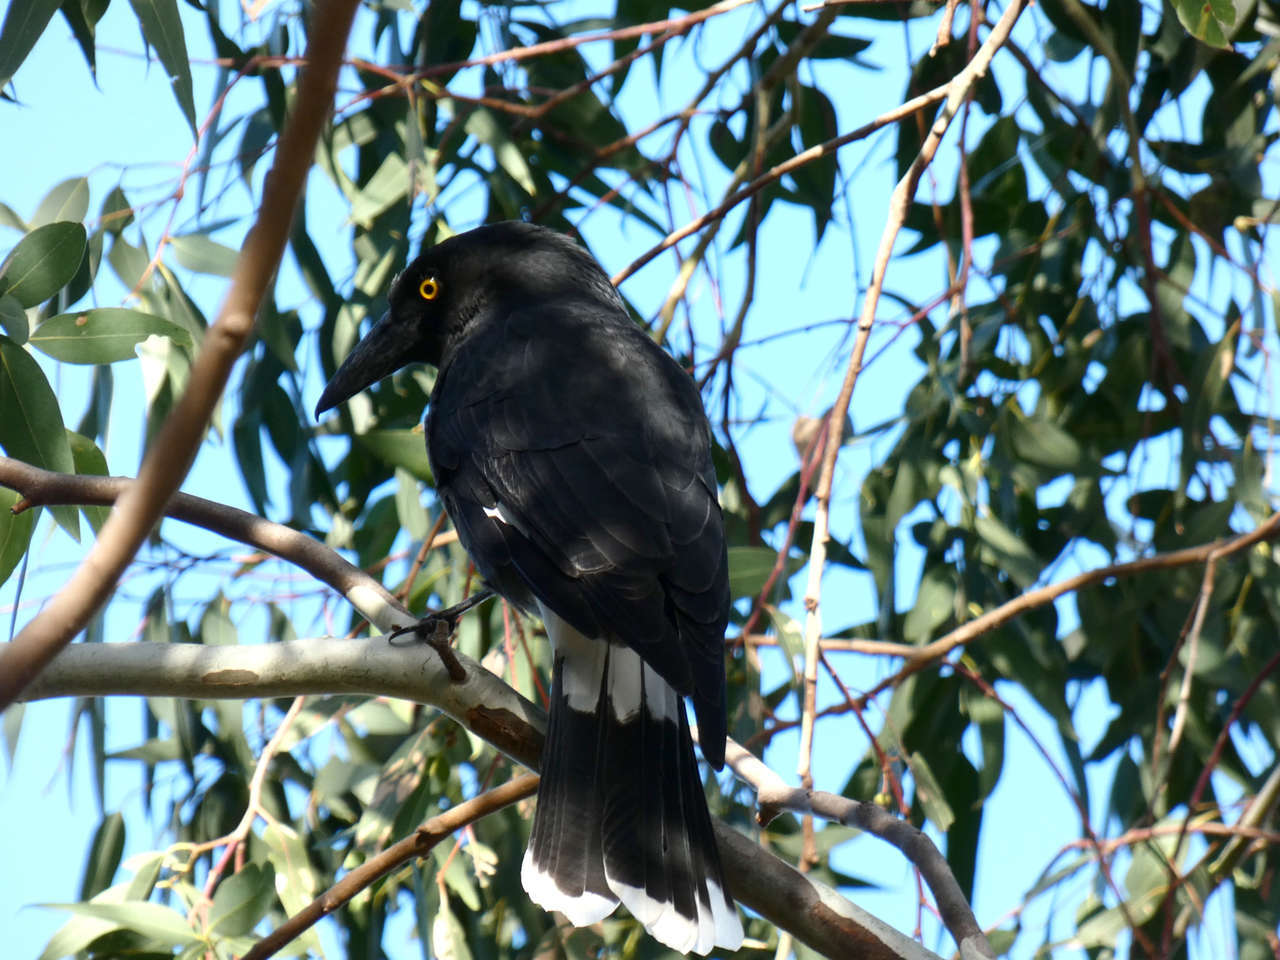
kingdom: Animalia
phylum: Chordata
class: Aves
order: Passeriformes
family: Cracticidae
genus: Strepera
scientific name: Strepera graculina
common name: Pied currawong
